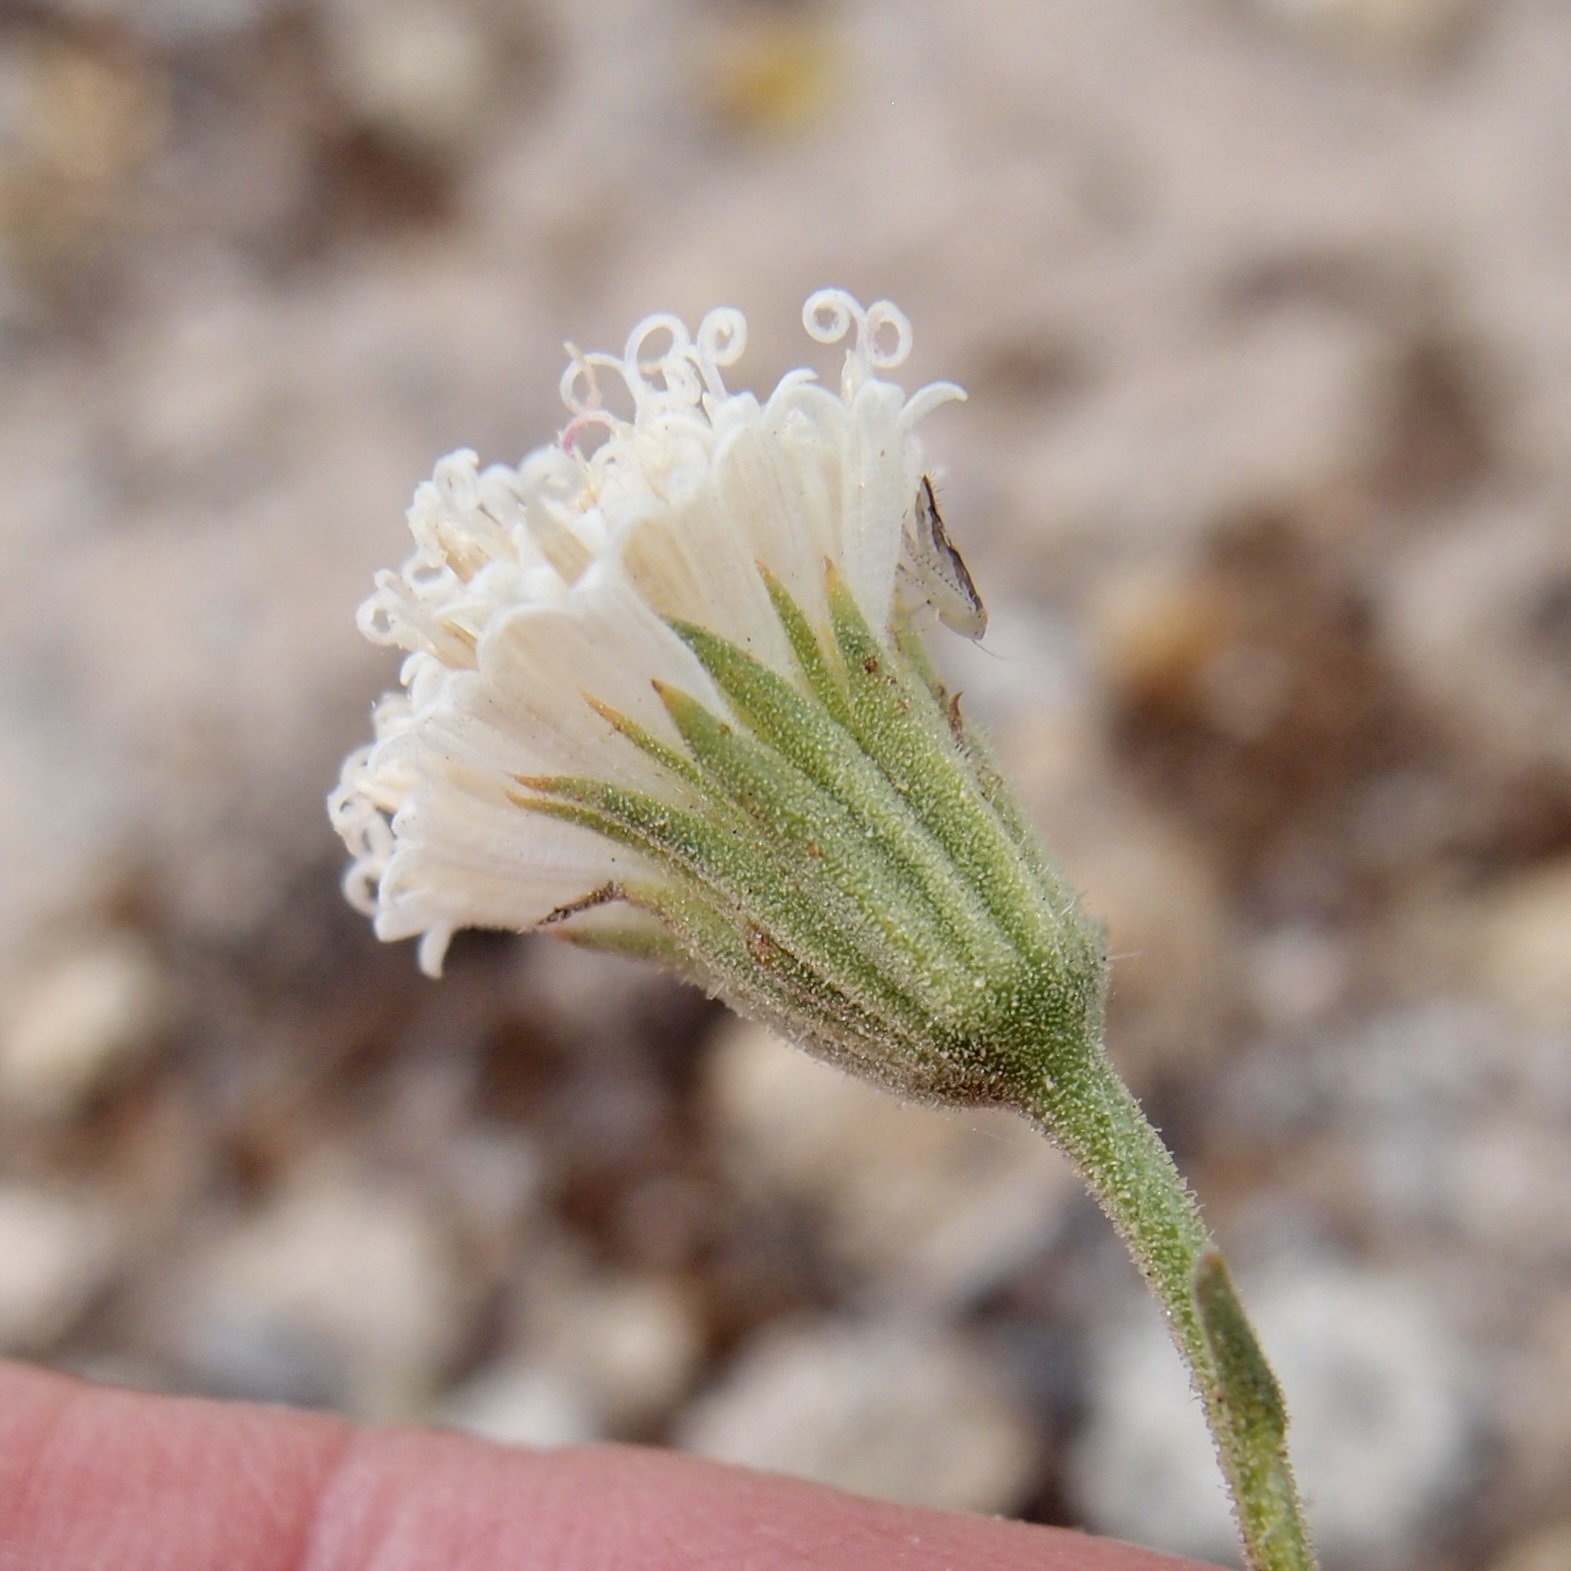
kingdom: Plantae
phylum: Tracheophyta
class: Magnoliopsida
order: Asterales
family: Asteraceae
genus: Chaenactis
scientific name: Chaenactis carphoclinia
